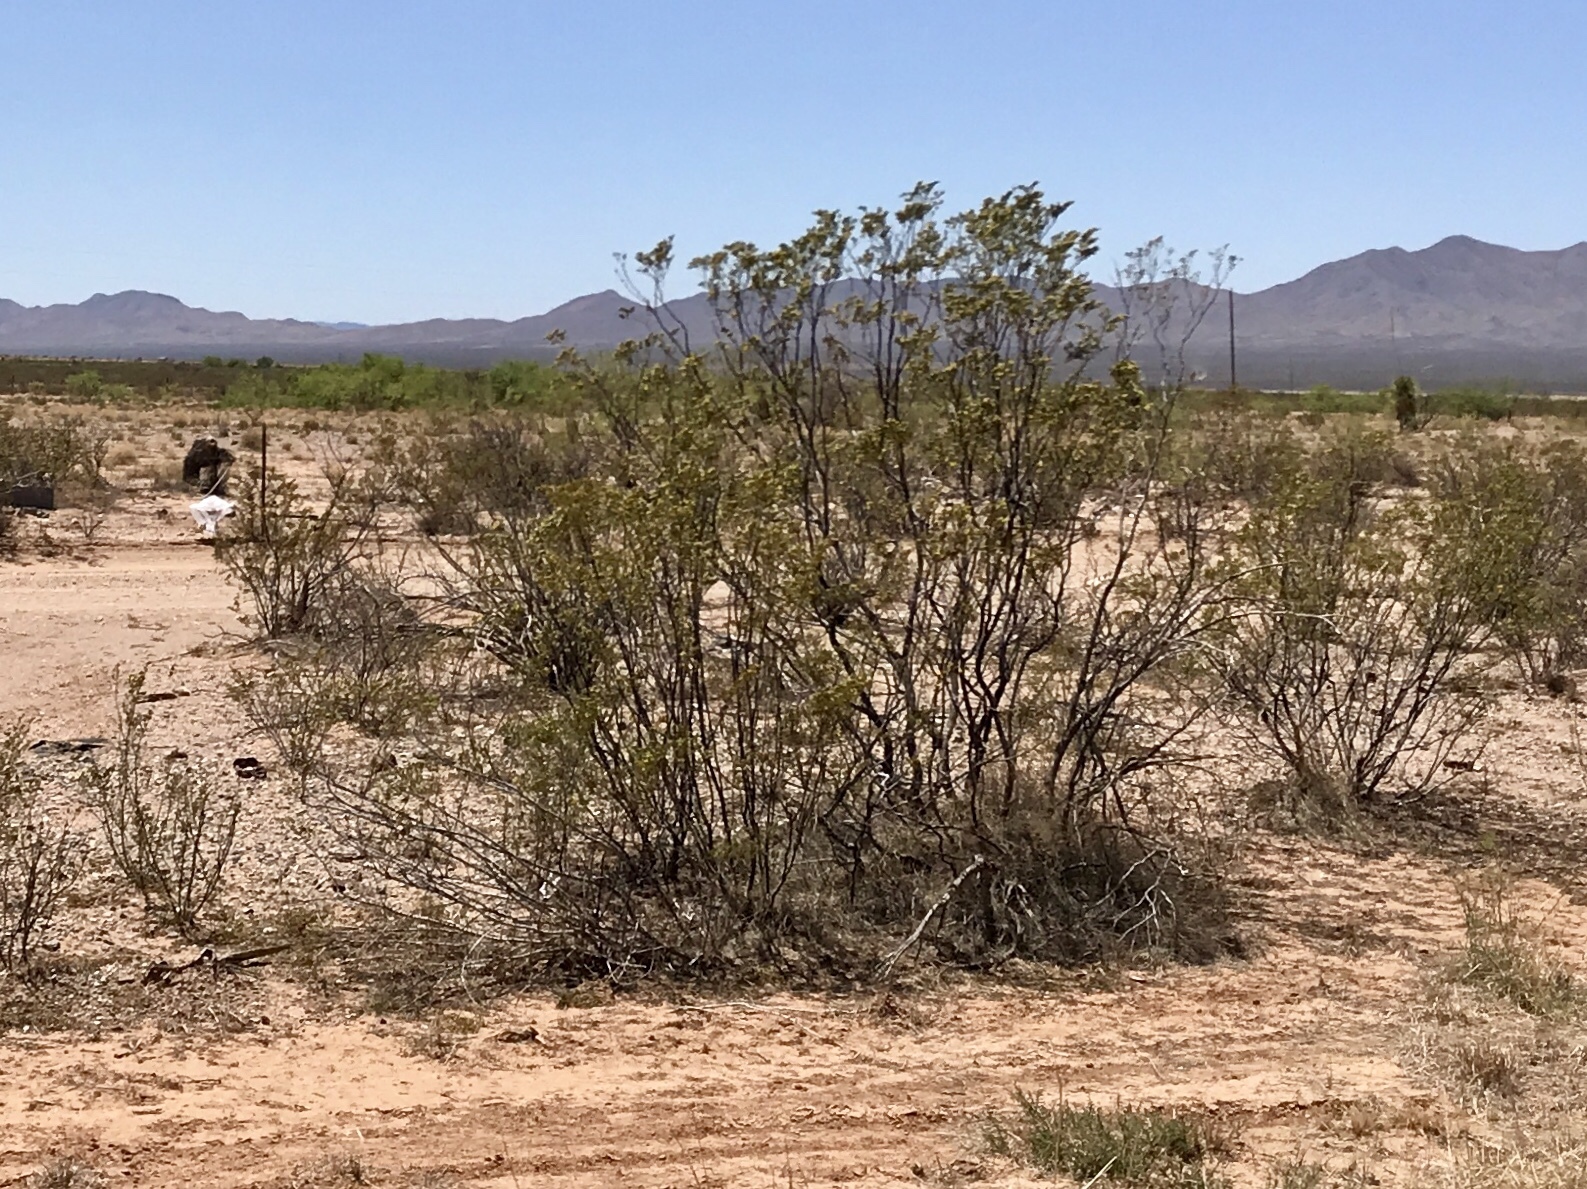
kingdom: Plantae
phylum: Tracheophyta
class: Magnoliopsida
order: Zygophyllales
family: Zygophyllaceae
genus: Larrea
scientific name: Larrea tridentata
